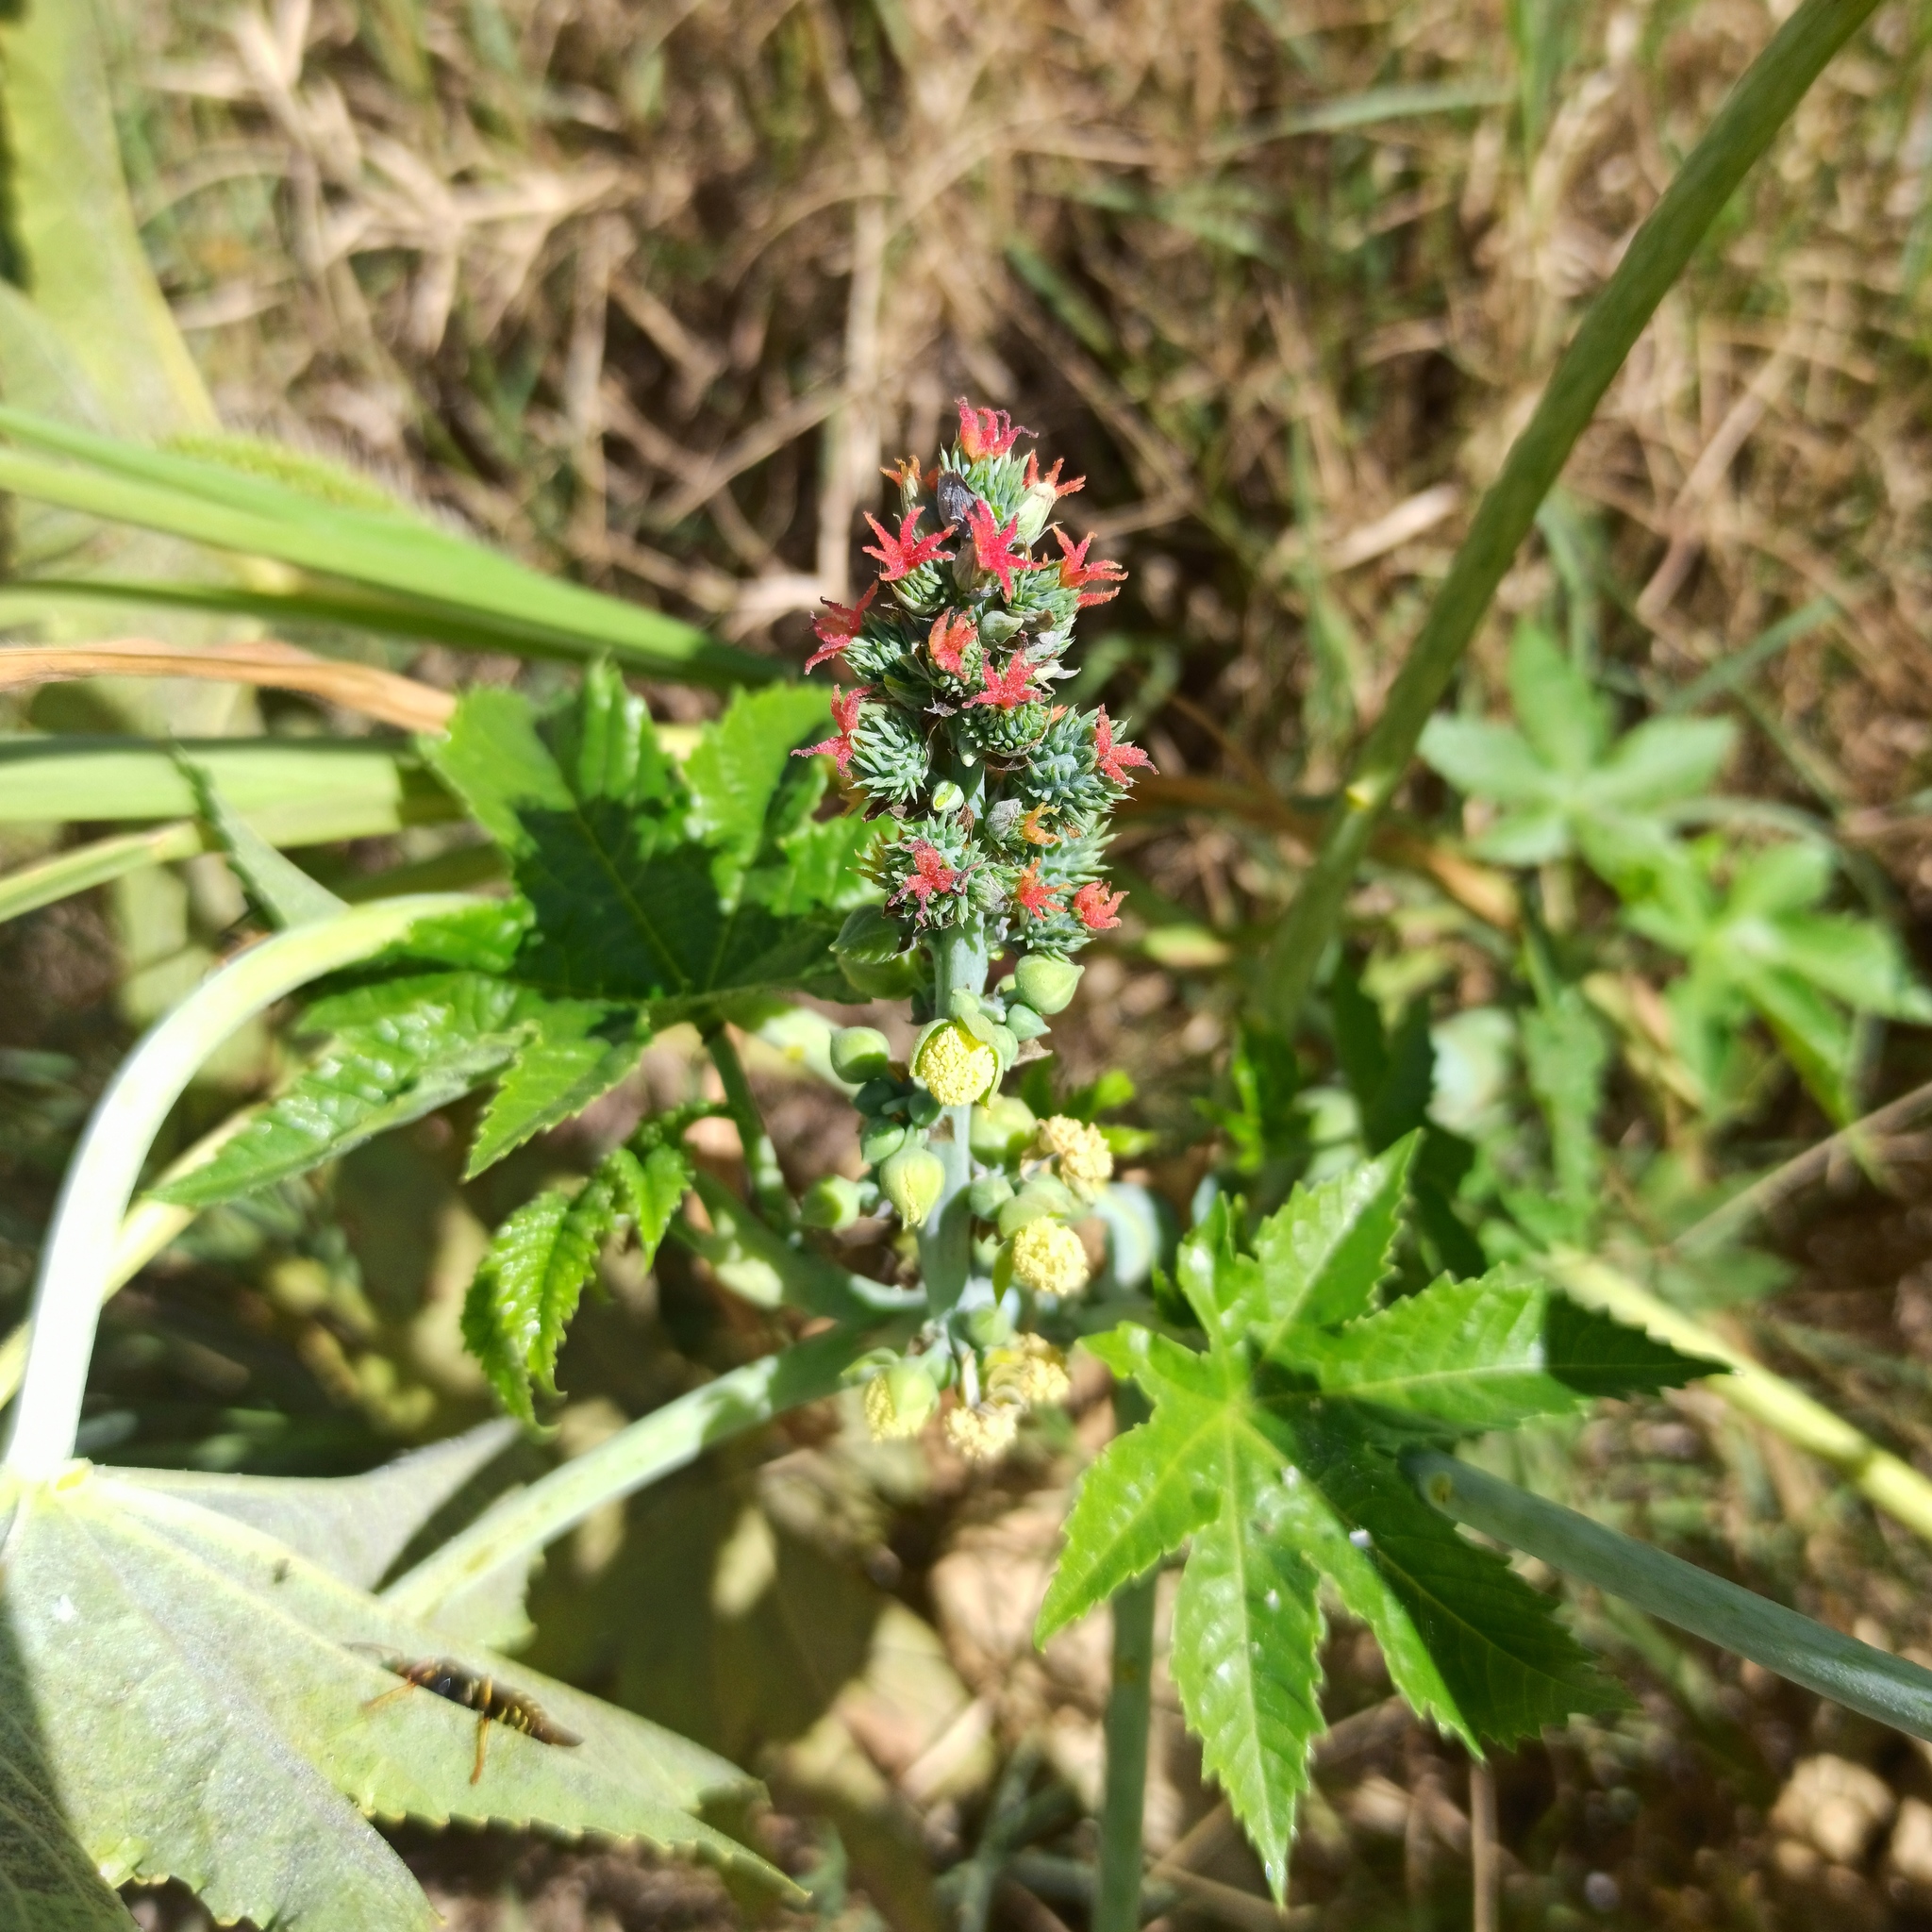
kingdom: Plantae
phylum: Tracheophyta
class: Magnoliopsida
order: Malpighiales
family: Euphorbiaceae
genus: Ricinus
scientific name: Ricinus communis
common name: Castor-oil-plant
